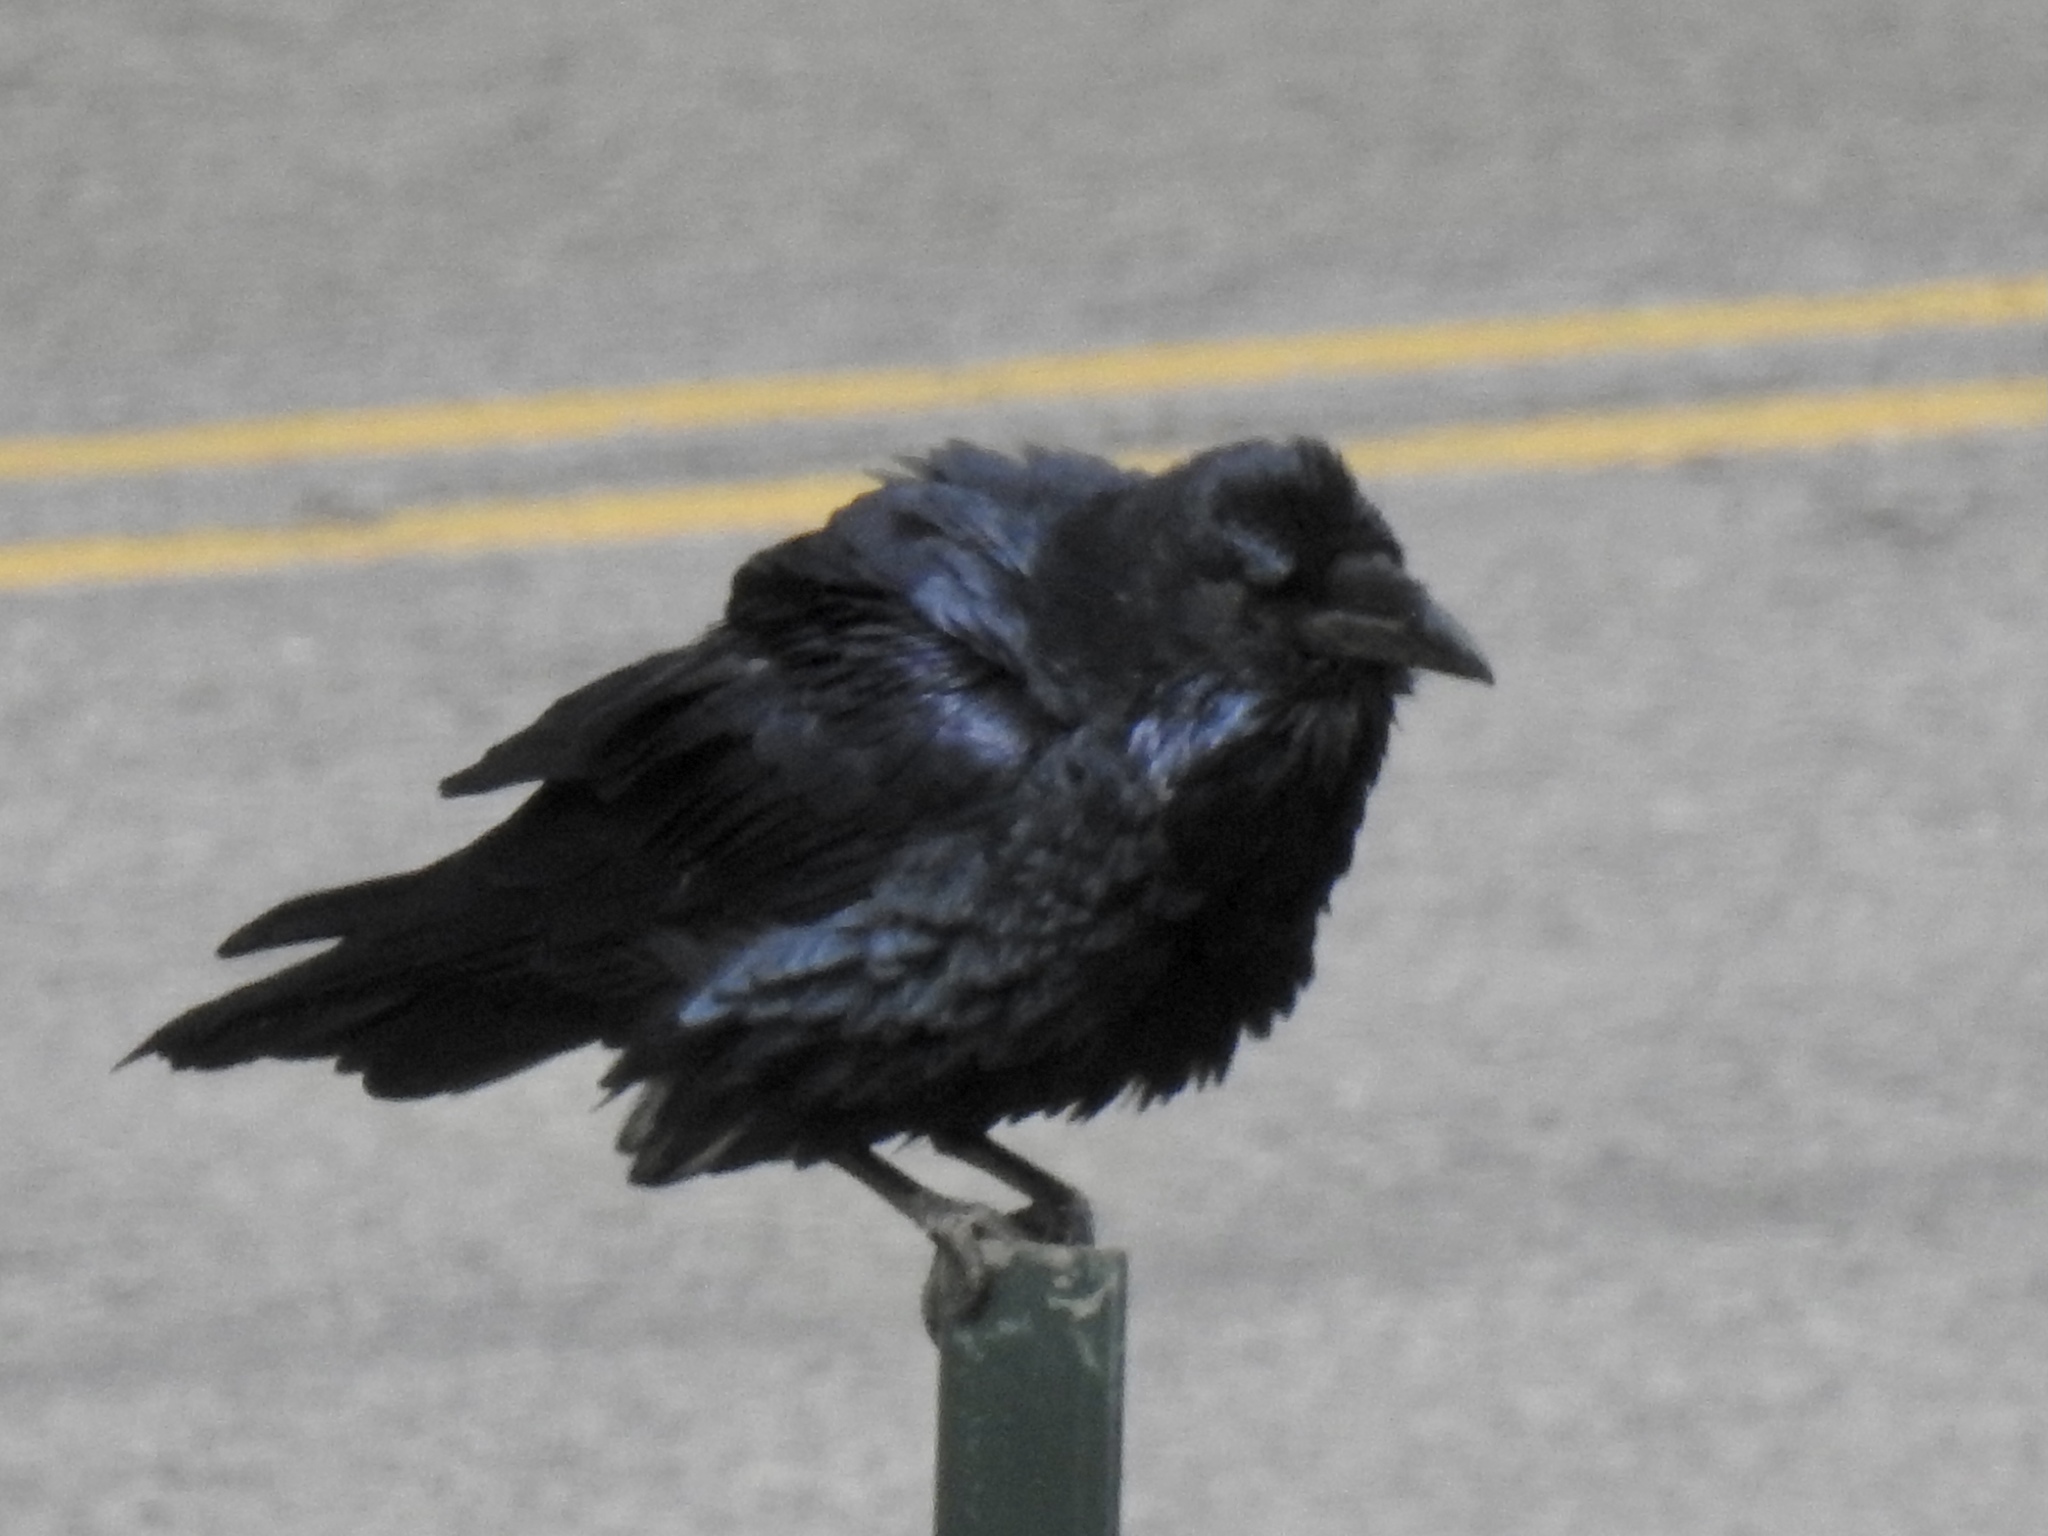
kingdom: Animalia
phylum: Chordata
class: Aves
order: Passeriformes
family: Corvidae
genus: Corvus
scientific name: Corvus corax
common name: Common raven
